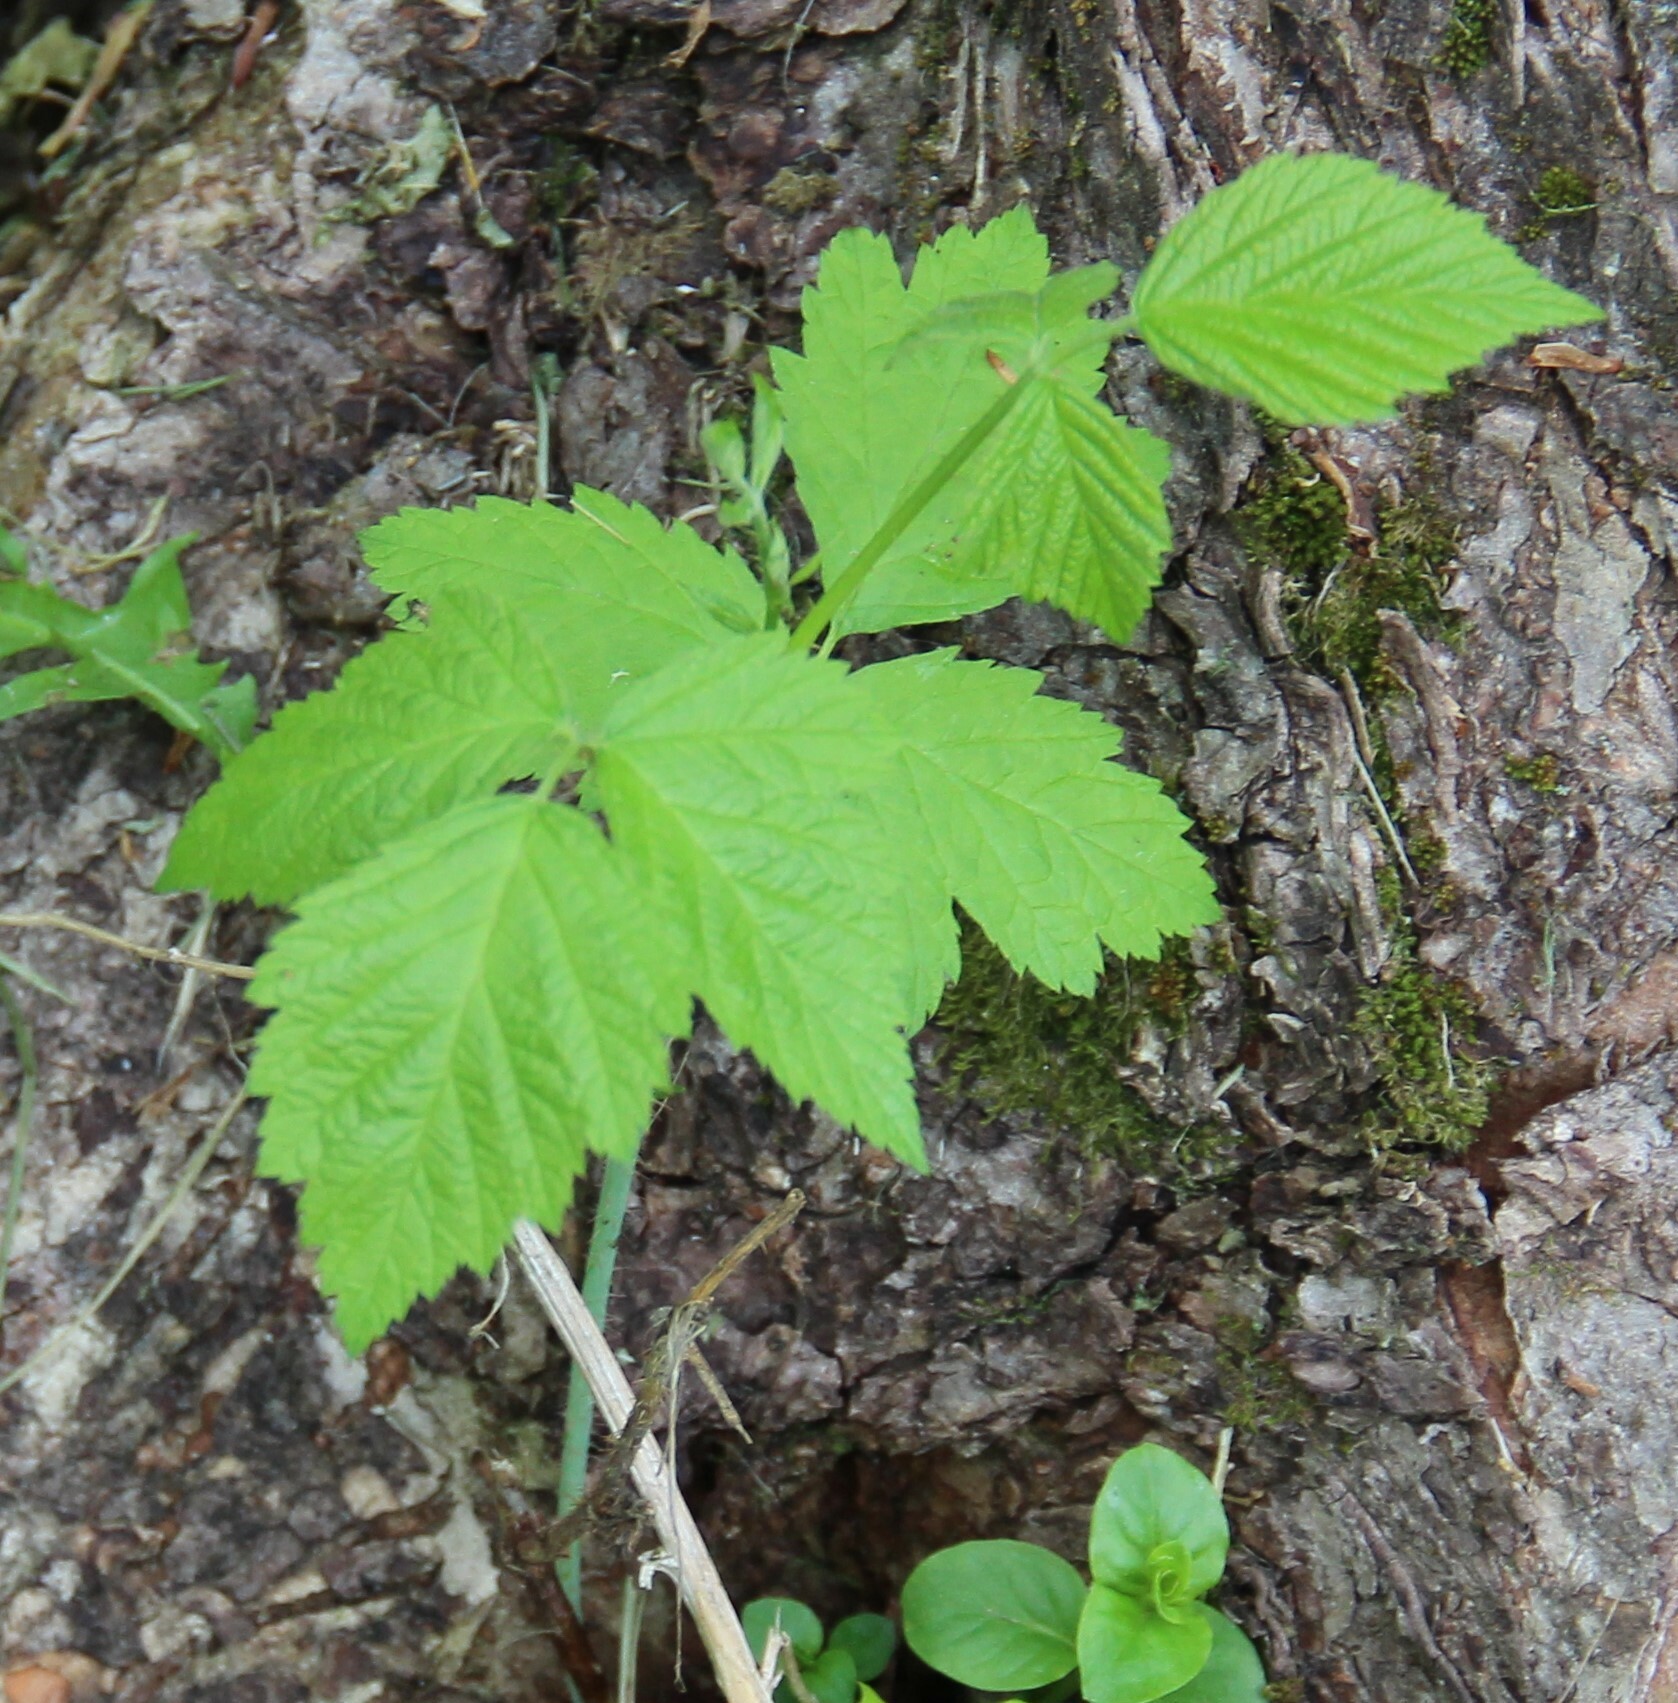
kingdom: Plantae
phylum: Tracheophyta
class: Magnoliopsida
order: Rosales
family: Rosaceae
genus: Rubus
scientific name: Rubus caesius
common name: Dewberry
